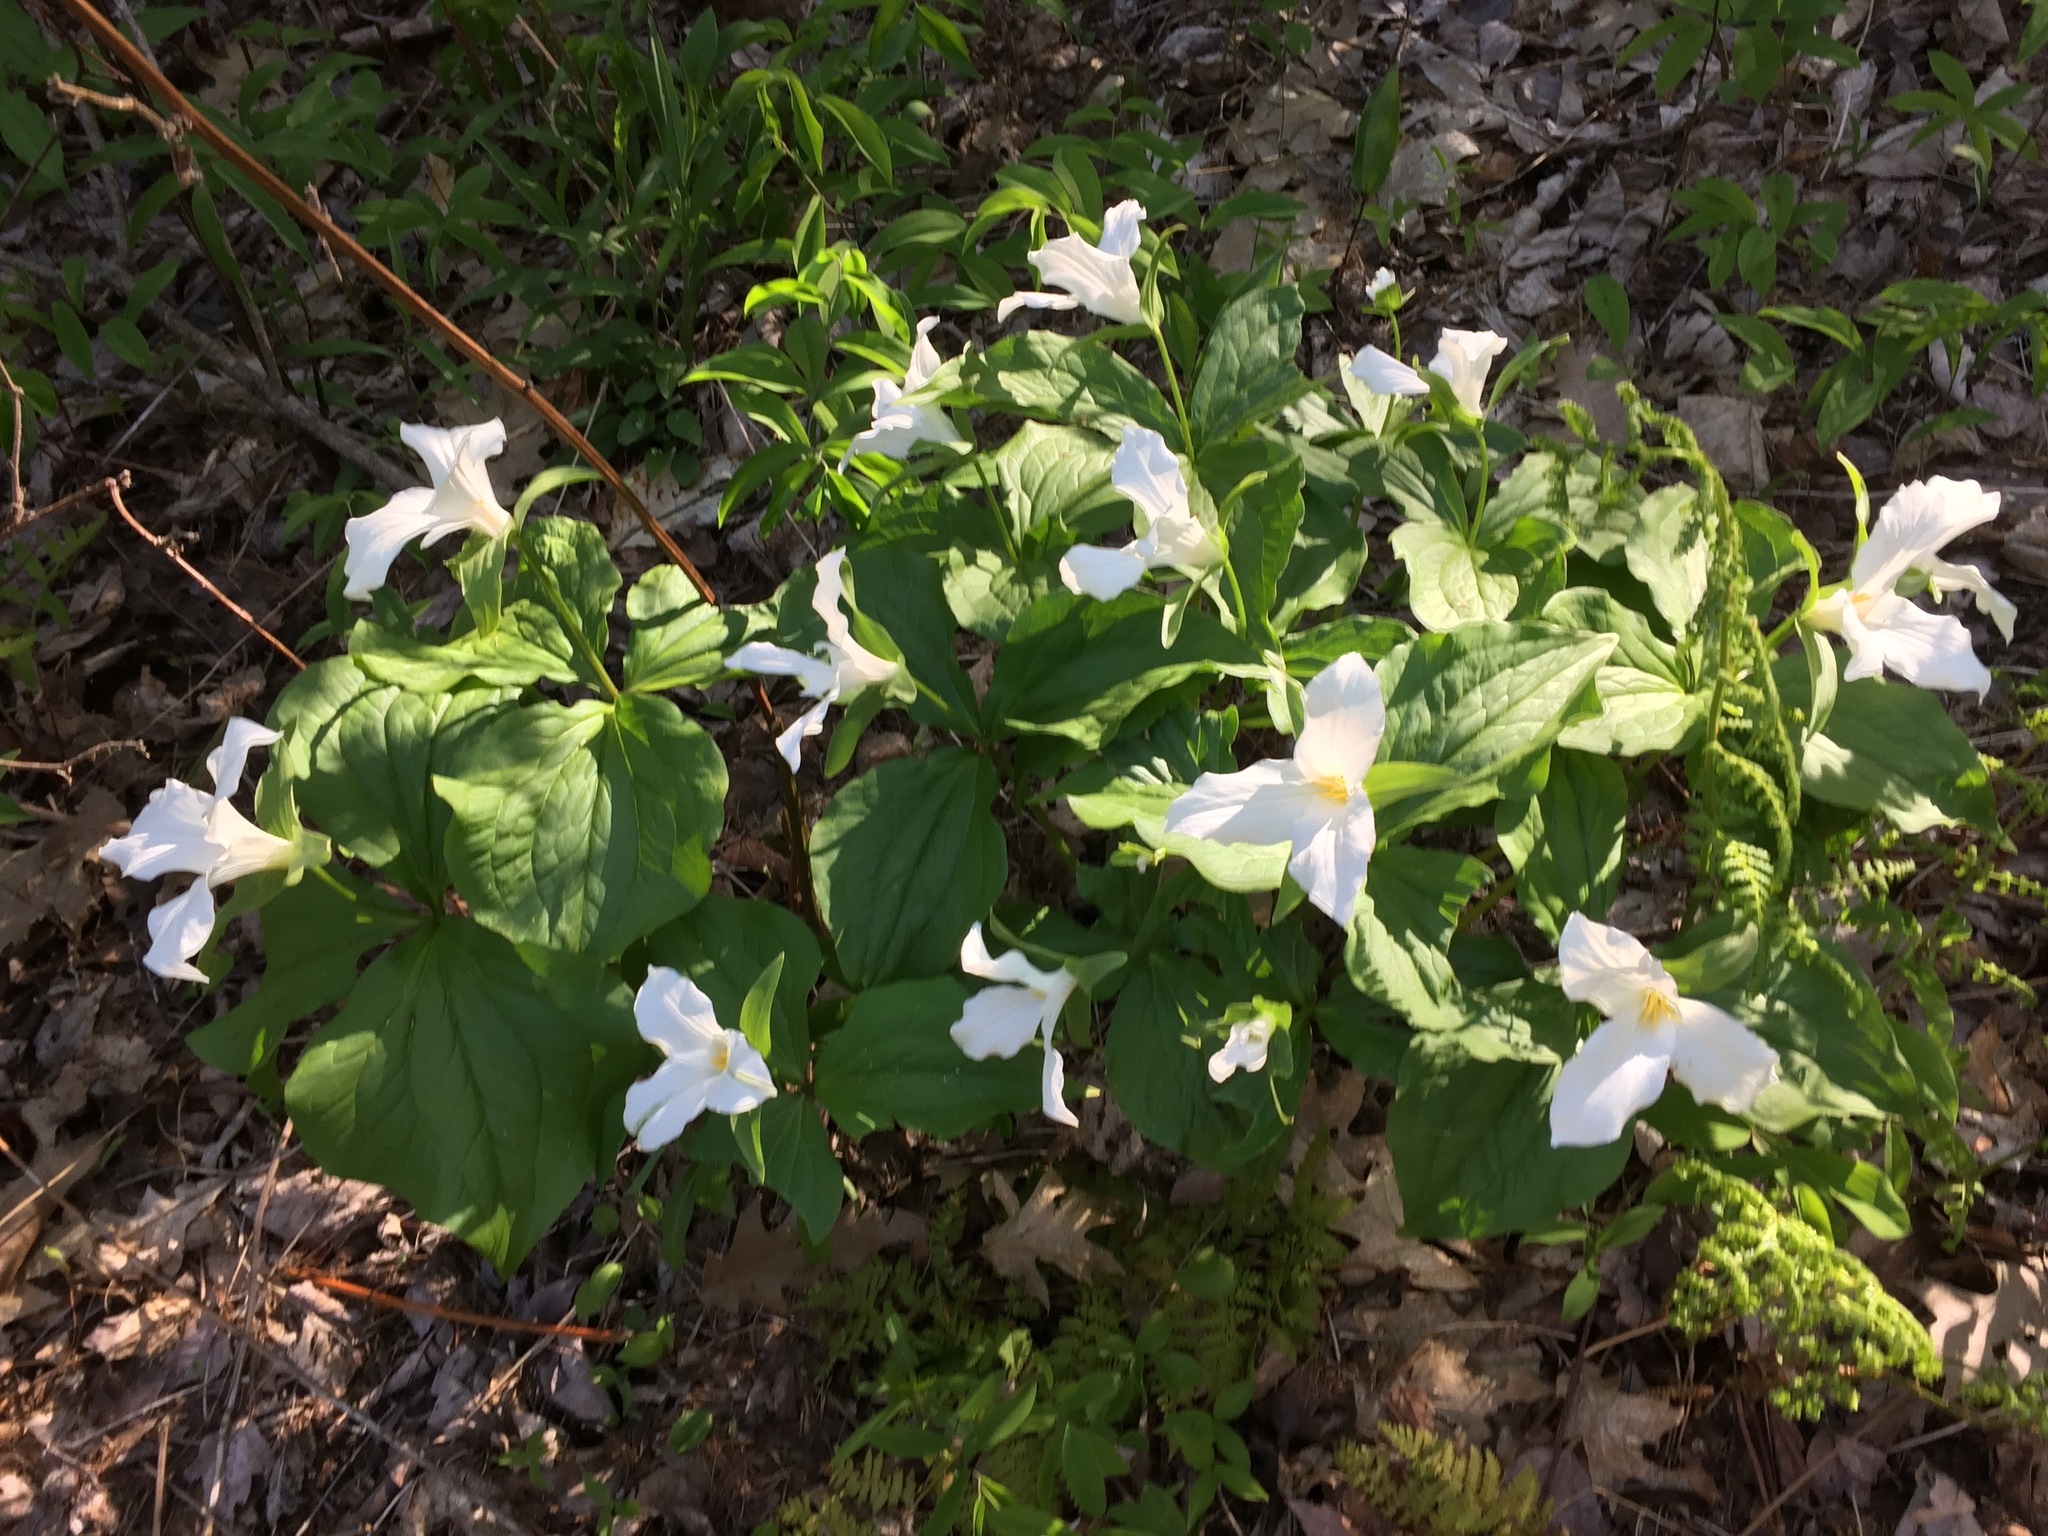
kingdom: Plantae
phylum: Tracheophyta
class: Liliopsida
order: Liliales
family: Melanthiaceae
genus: Trillium
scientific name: Trillium grandiflorum
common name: Great white trillium
